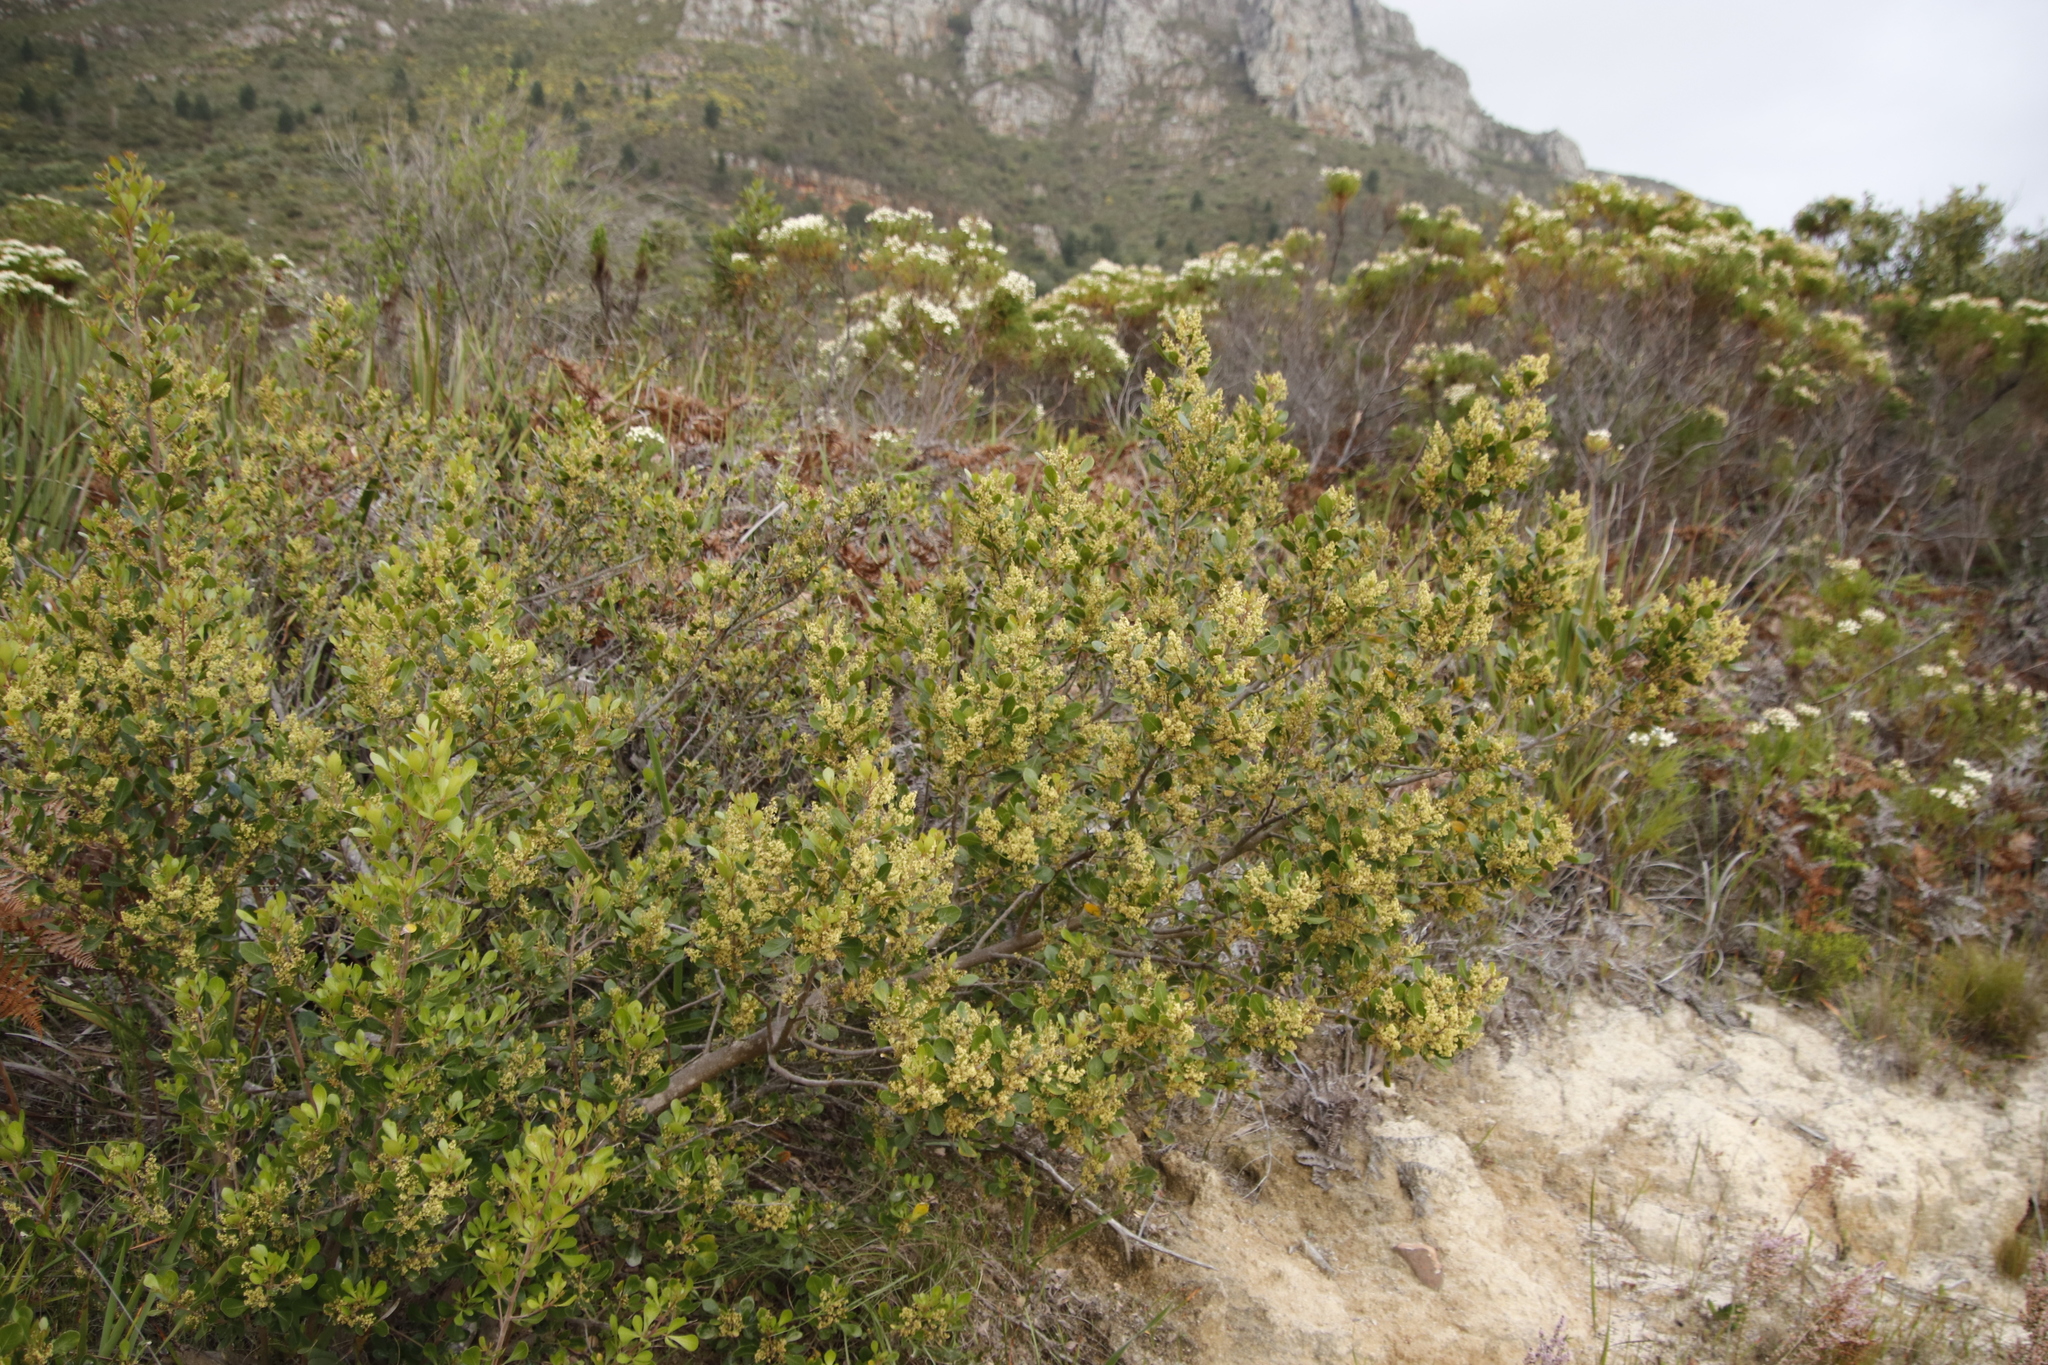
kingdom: Plantae
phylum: Tracheophyta
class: Magnoliopsida
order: Sapindales
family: Anacardiaceae
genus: Searsia
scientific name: Searsia lucida
